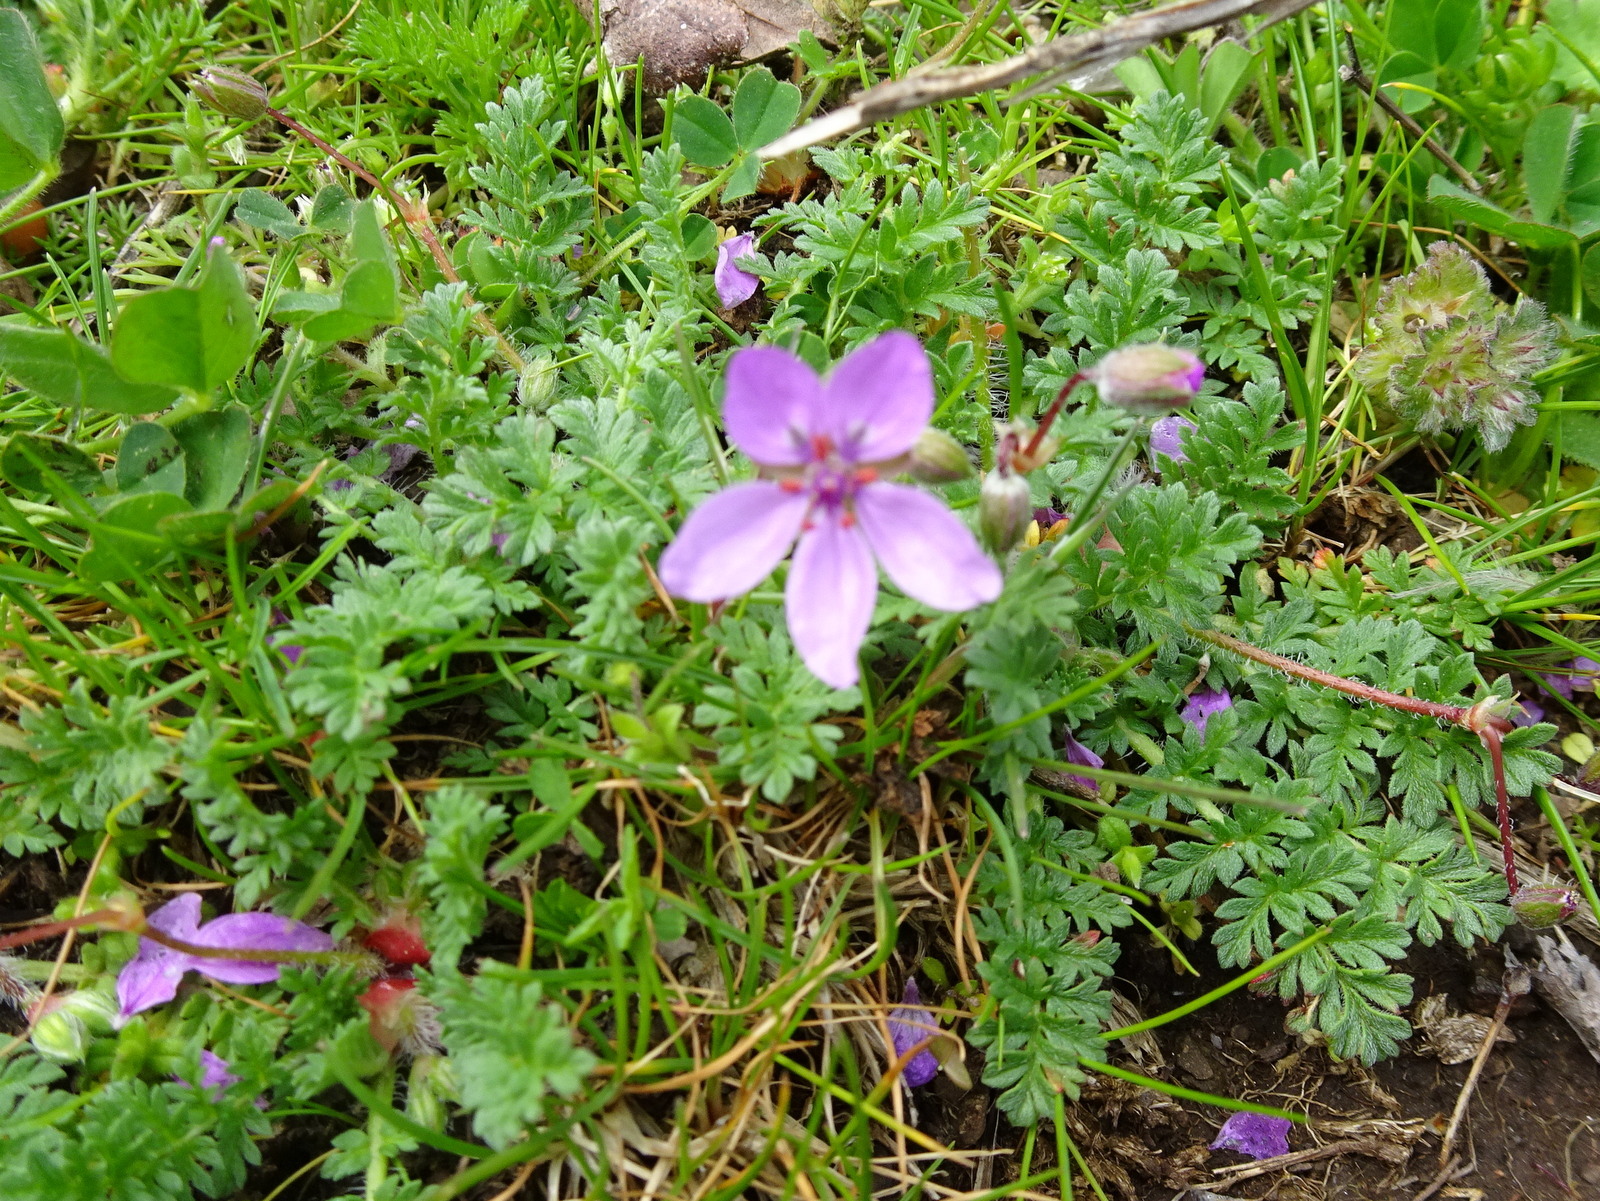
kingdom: Plantae
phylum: Tracheophyta
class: Magnoliopsida
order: Geraniales
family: Geraniaceae
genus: Erodium
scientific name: Erodium cicutarium
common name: Common stork's-bill
